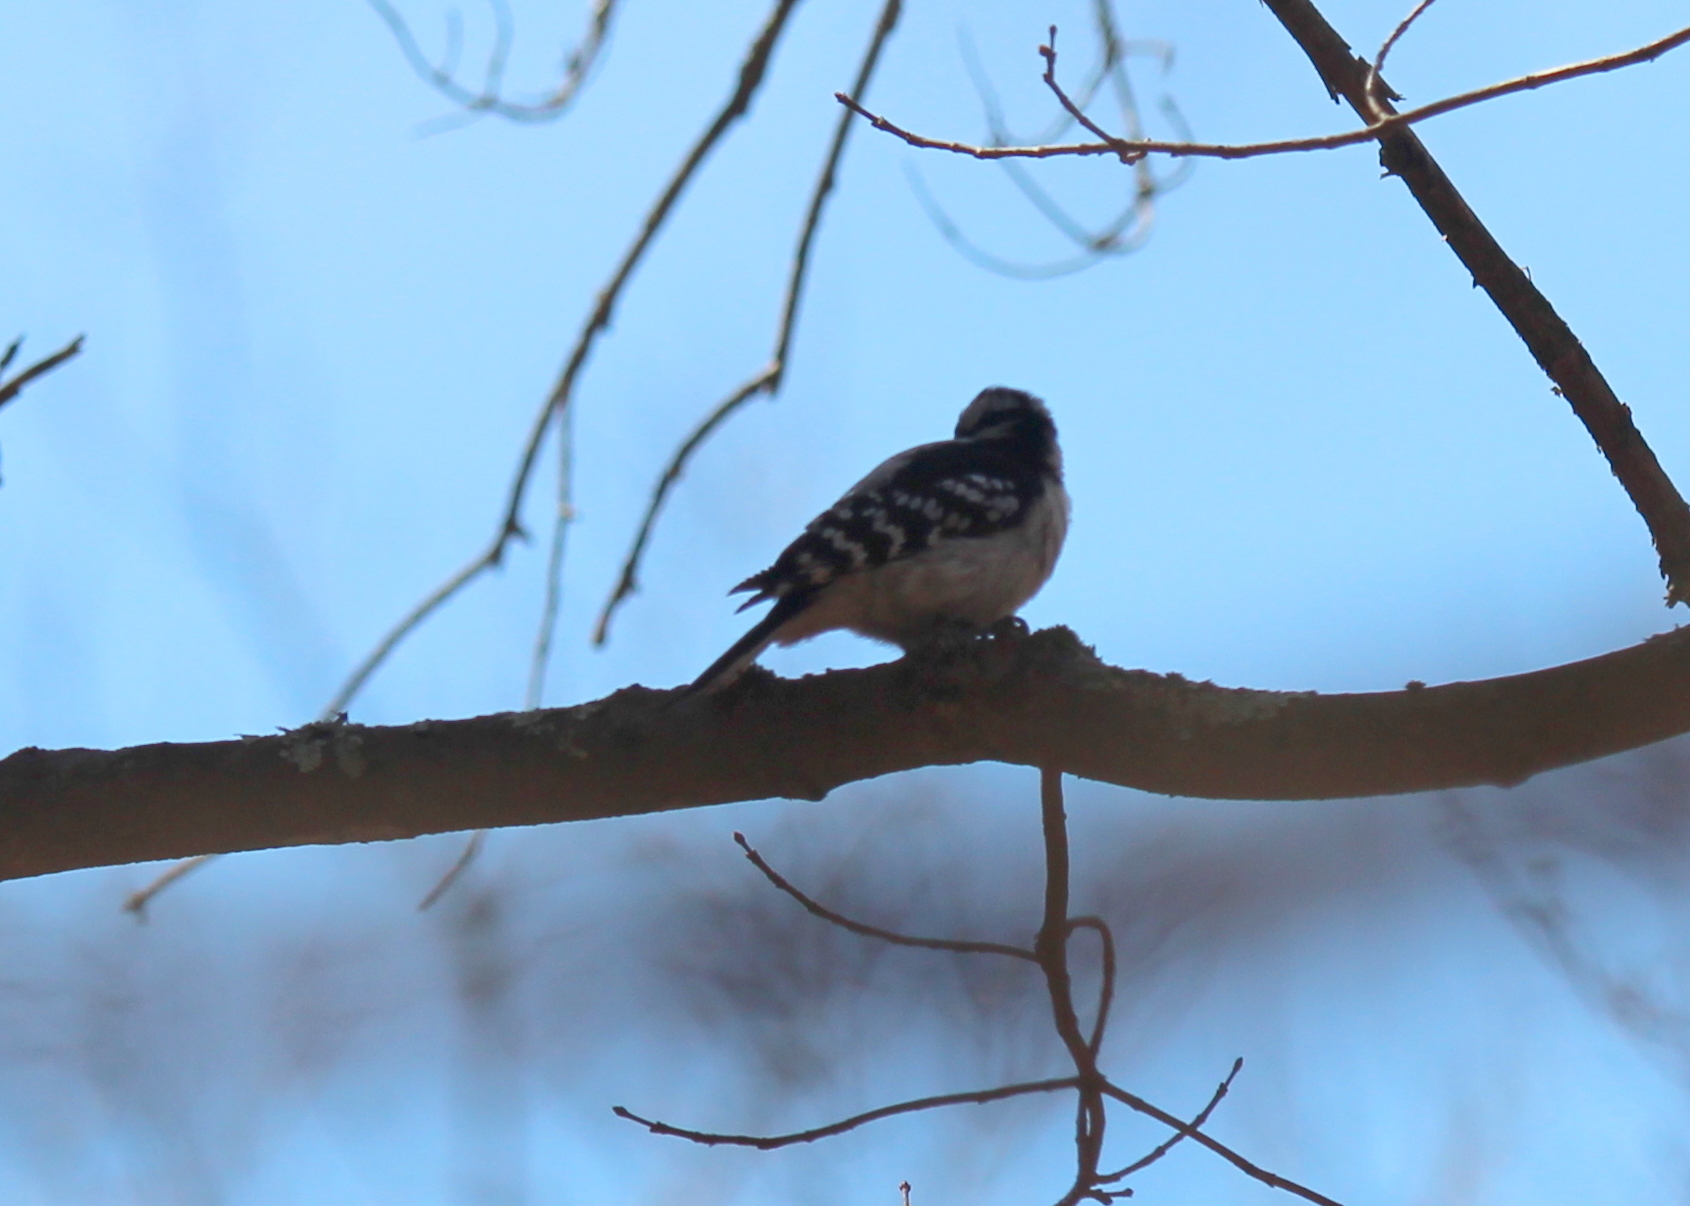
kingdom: Animalia
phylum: Chordata
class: Aves
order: Piciformes
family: Picidae
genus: Dryobates
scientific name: Dryobates pubescens
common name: Downy woodpecker
